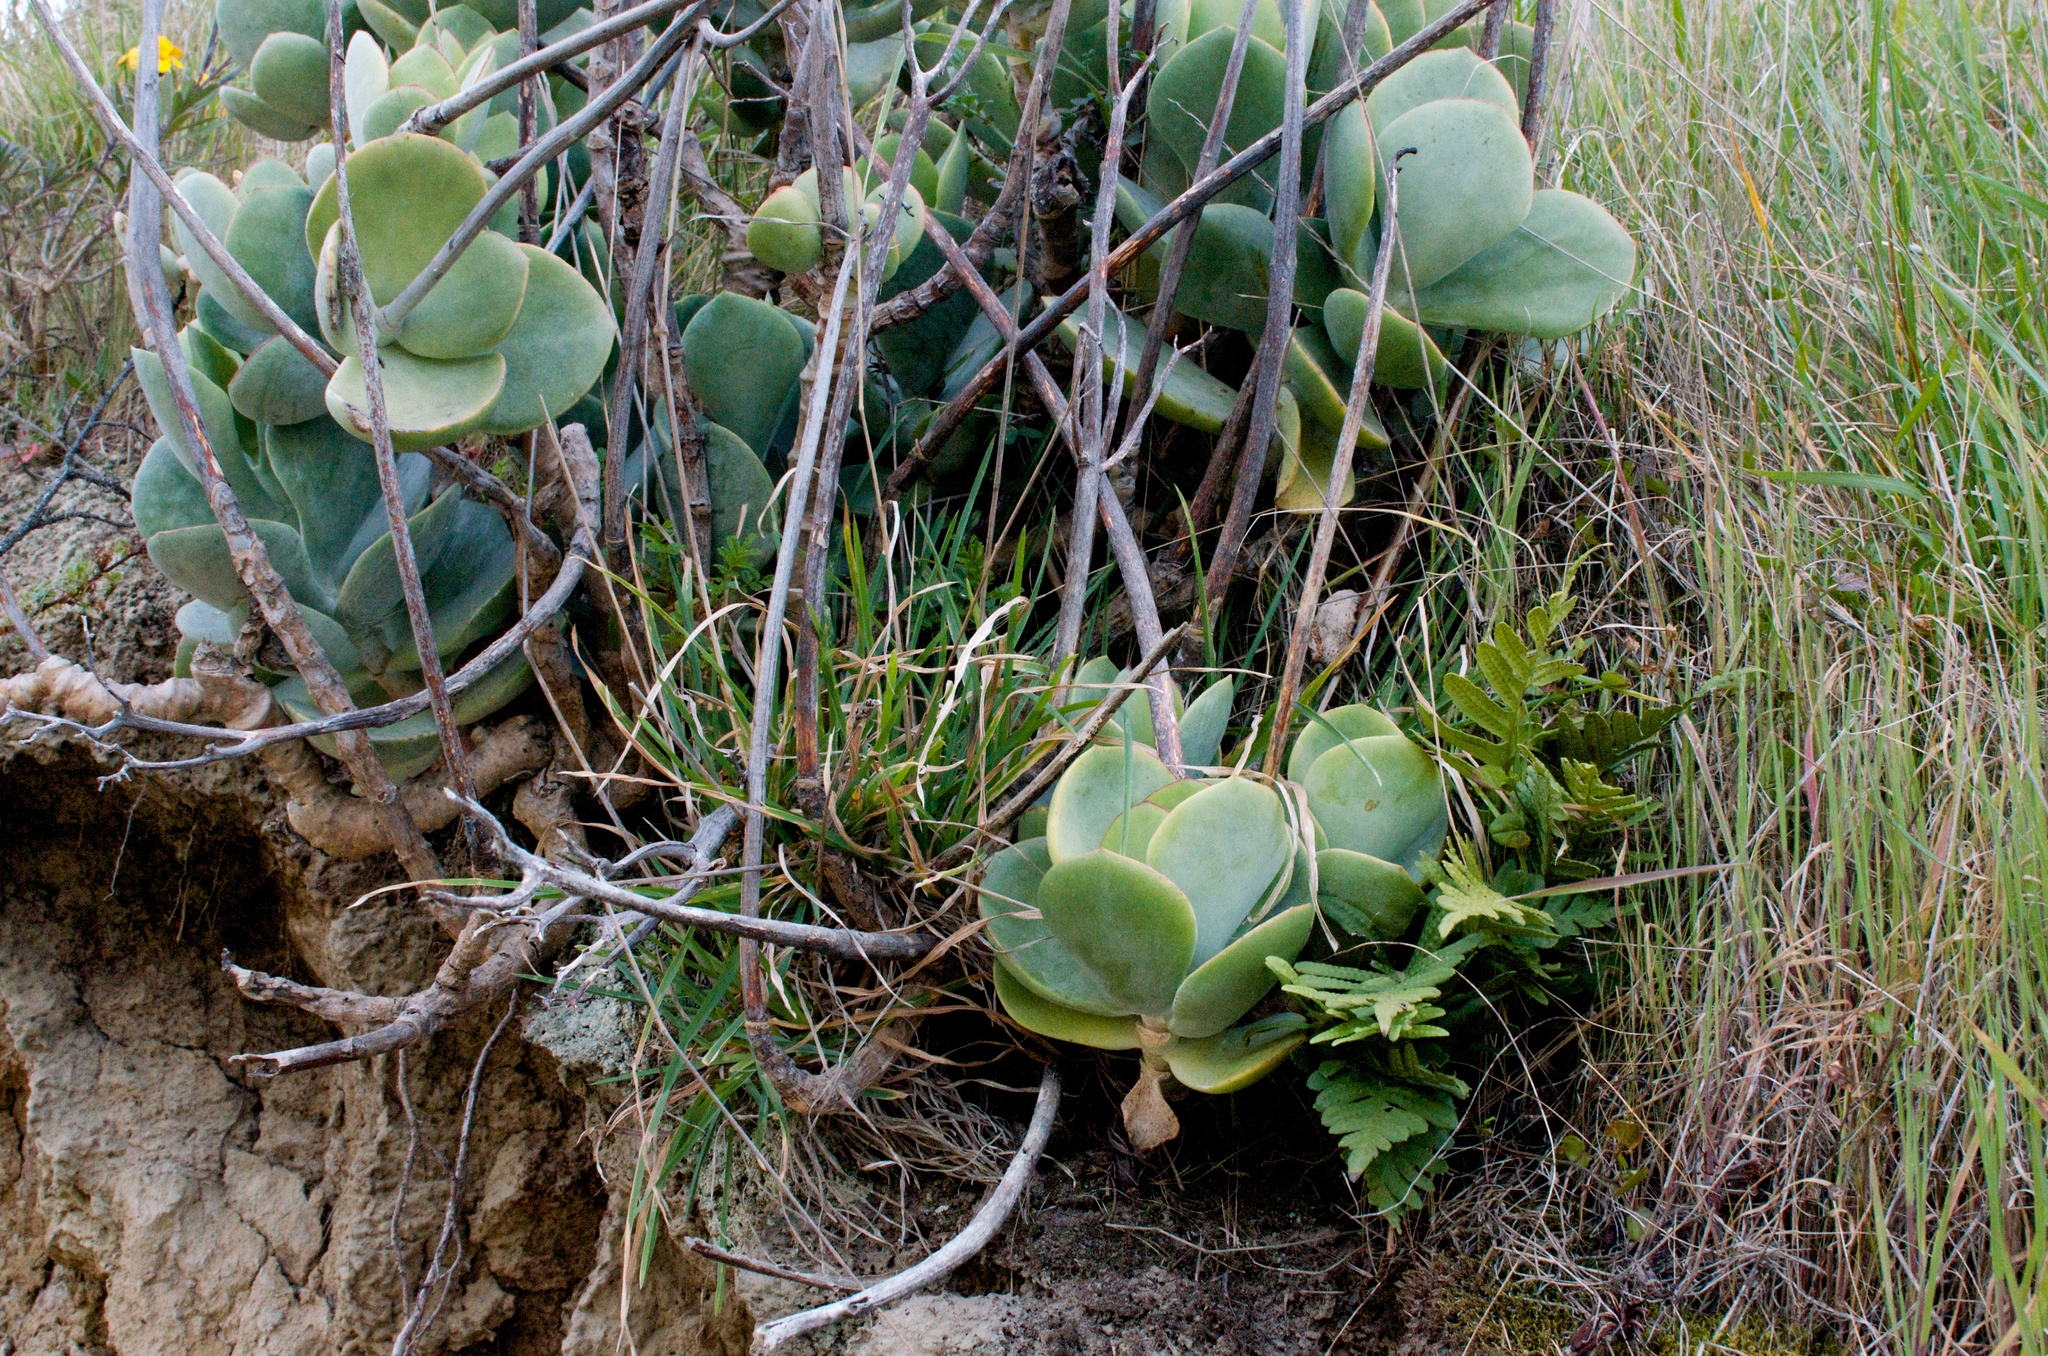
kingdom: Plantae
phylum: Tracheophyta
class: Polypodiopsida
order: Polypodiales
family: Polypodiaceae
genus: Polypodium
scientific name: Polypodium vulgare
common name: Common polypody
